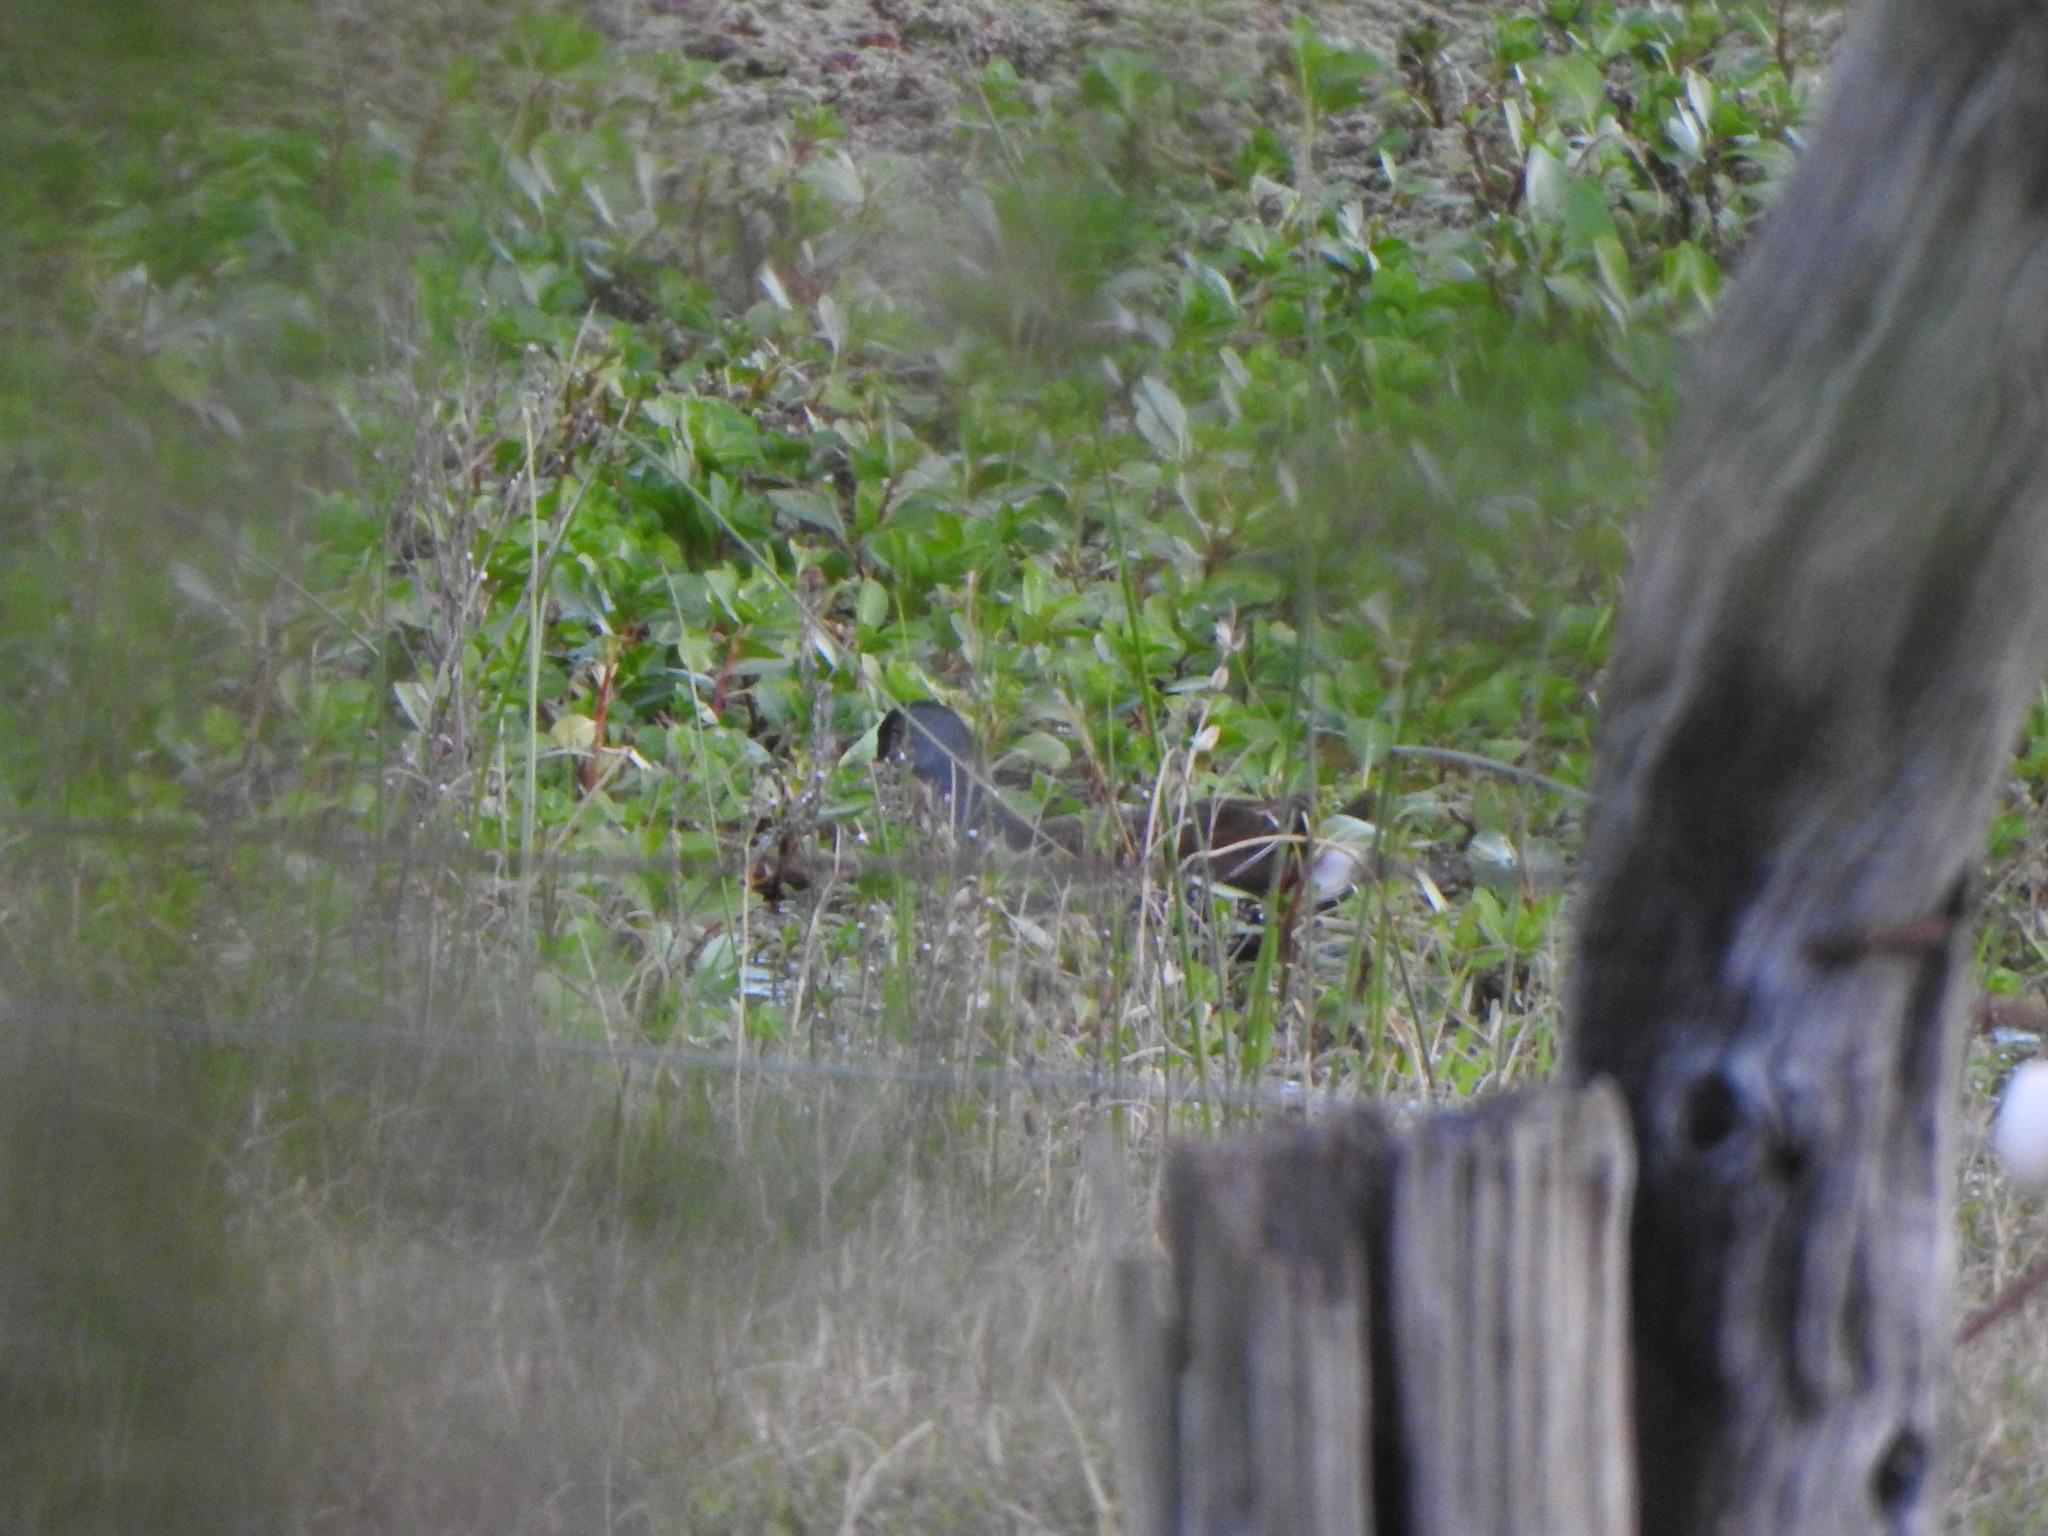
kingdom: Animalia
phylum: Chordata
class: Aves
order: Gruiformes
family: Rallidae
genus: Gallinula
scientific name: Gallinula melanops
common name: Spot-flanked gallinule
